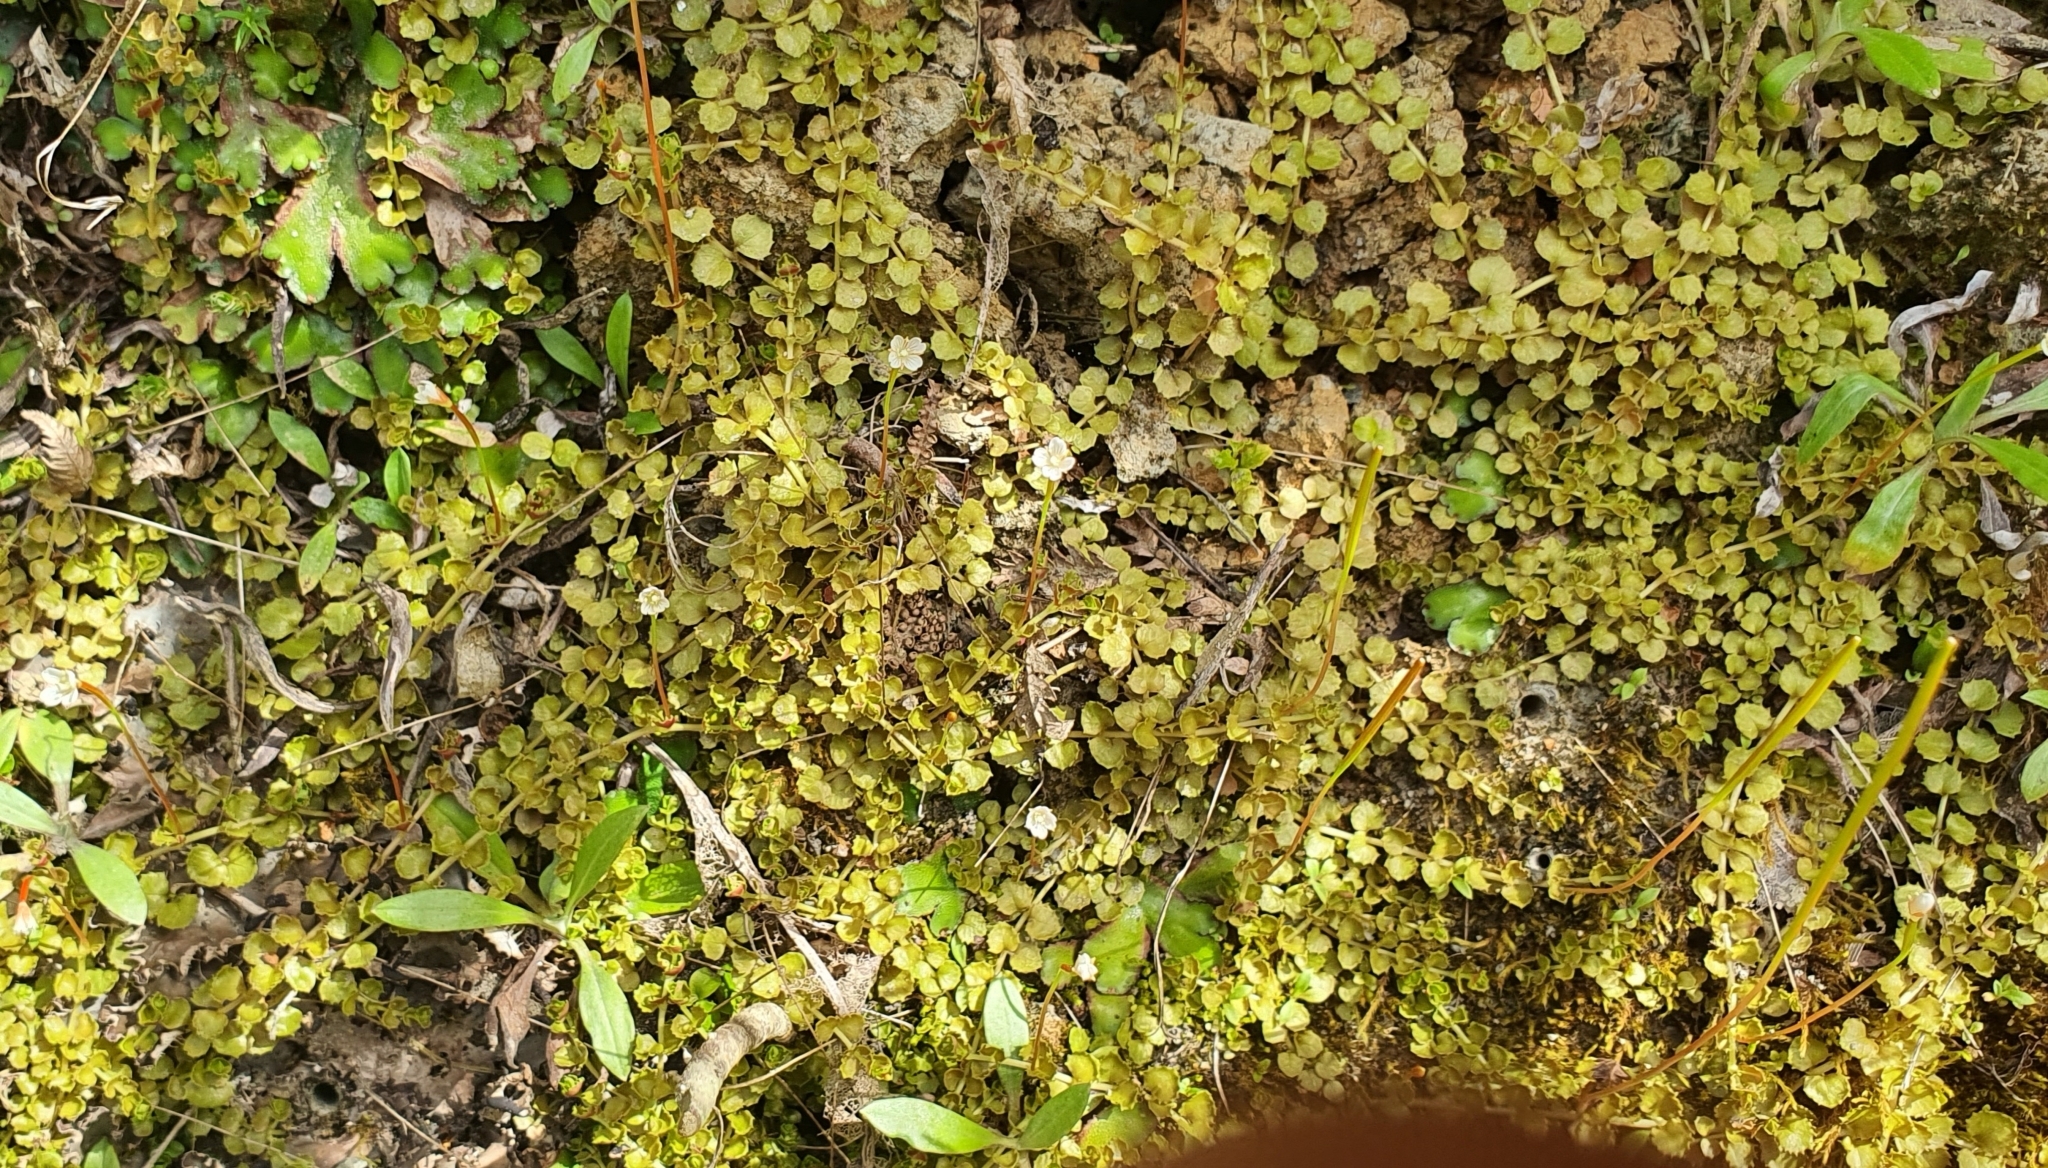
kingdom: Plantae
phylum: Tracheophyta
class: Magnoliopsida
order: Myrtales
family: Onagraceae
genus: Epilobium
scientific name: Epilobium pedunculare
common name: Rockery willowherb
